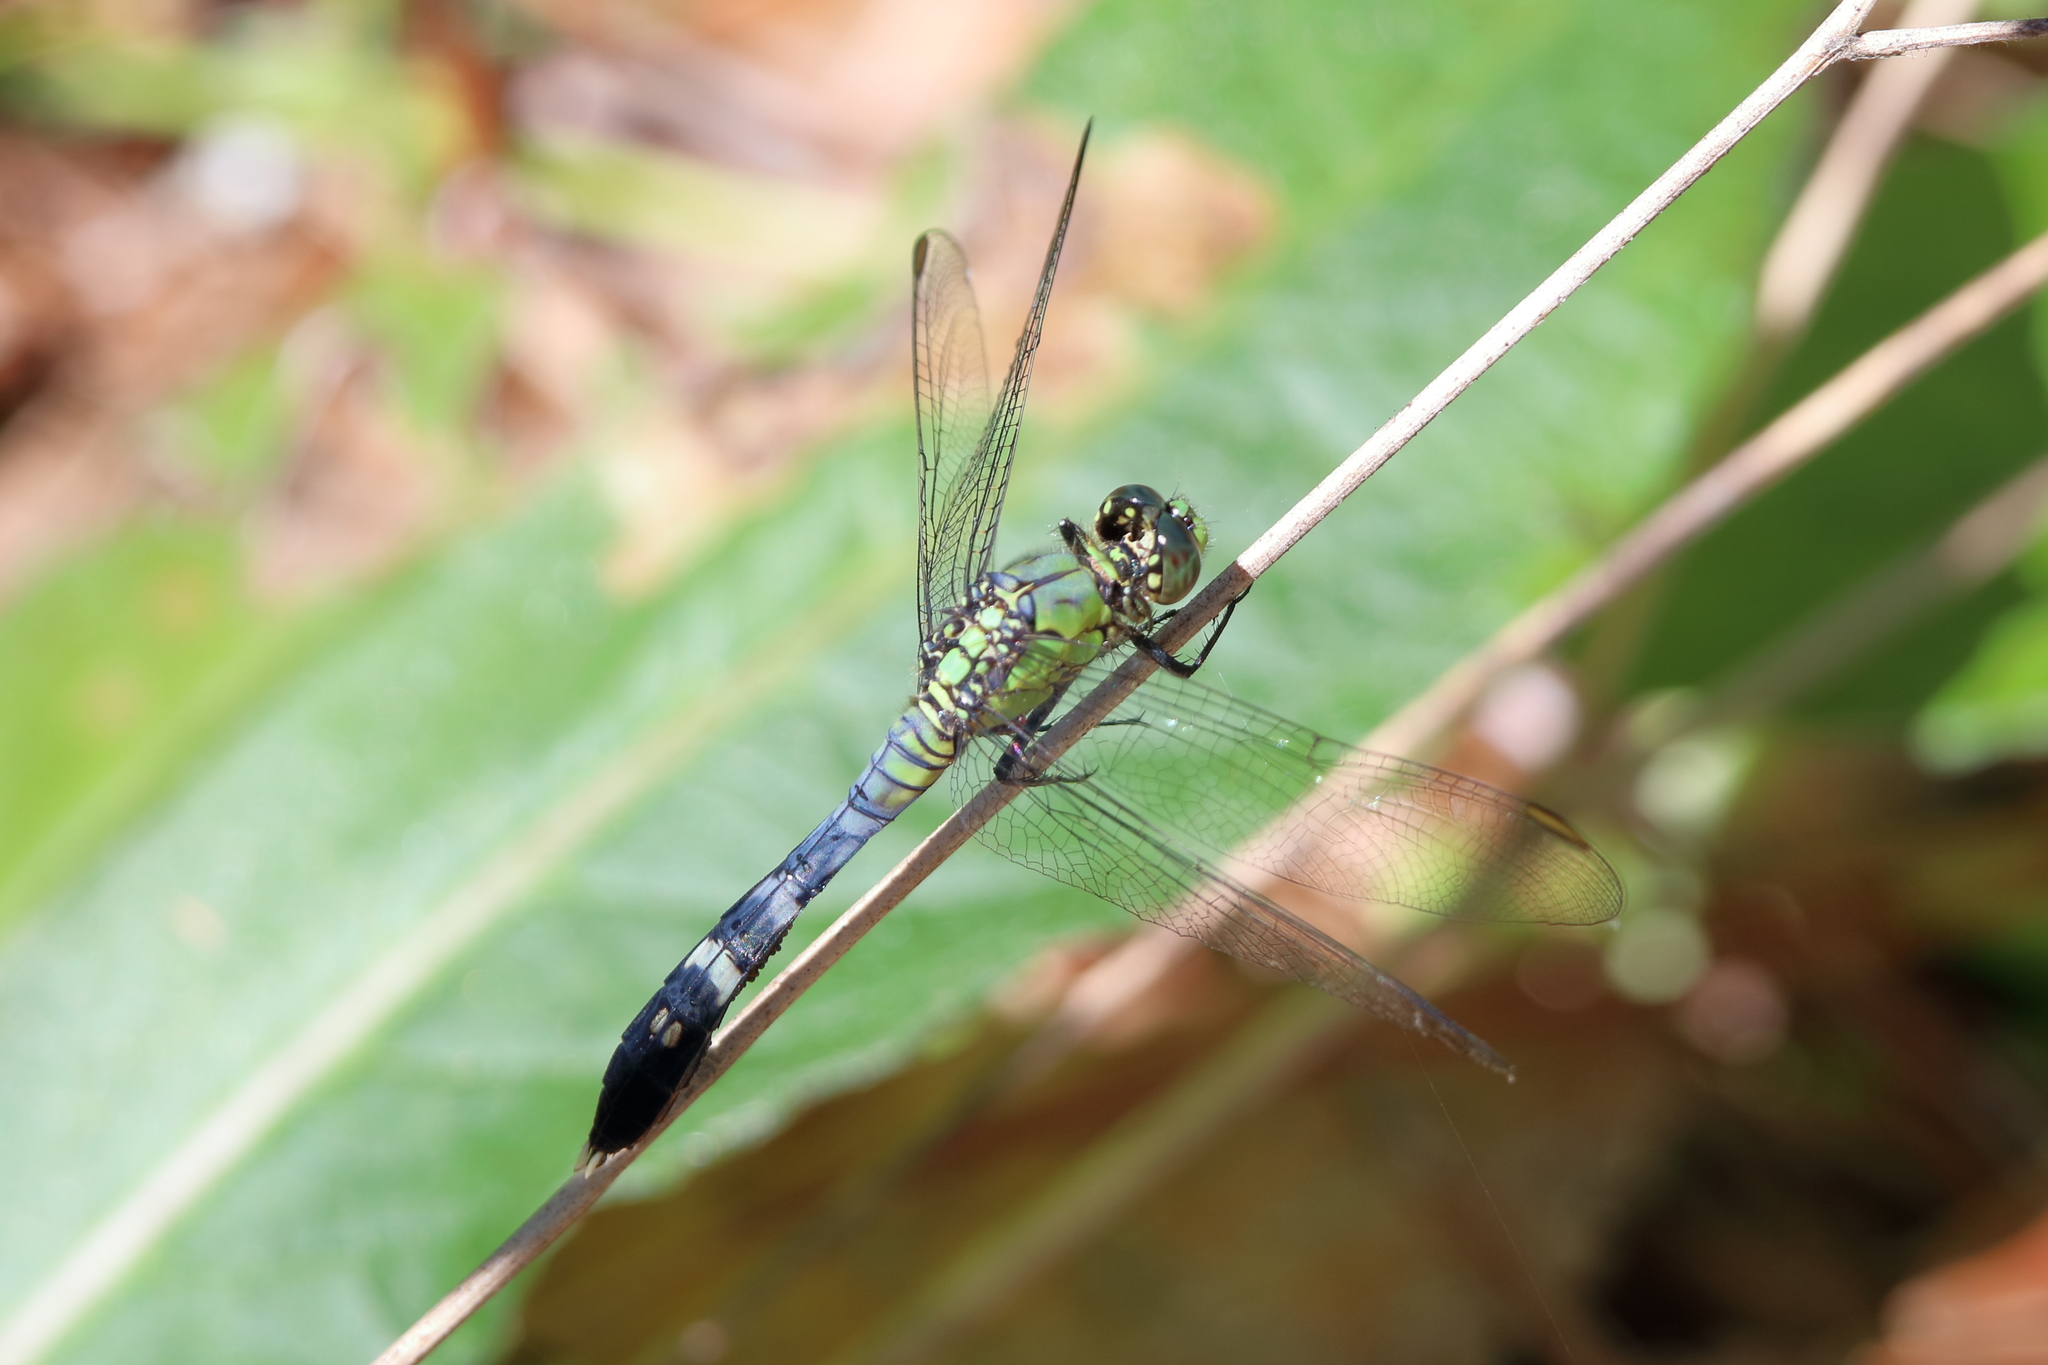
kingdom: Animalia
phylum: Arthropoda
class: Insecta
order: Odonata
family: Libellulidae
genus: Erythemis
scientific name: Erythemis simplicicollis
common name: Eastern pondhawk
